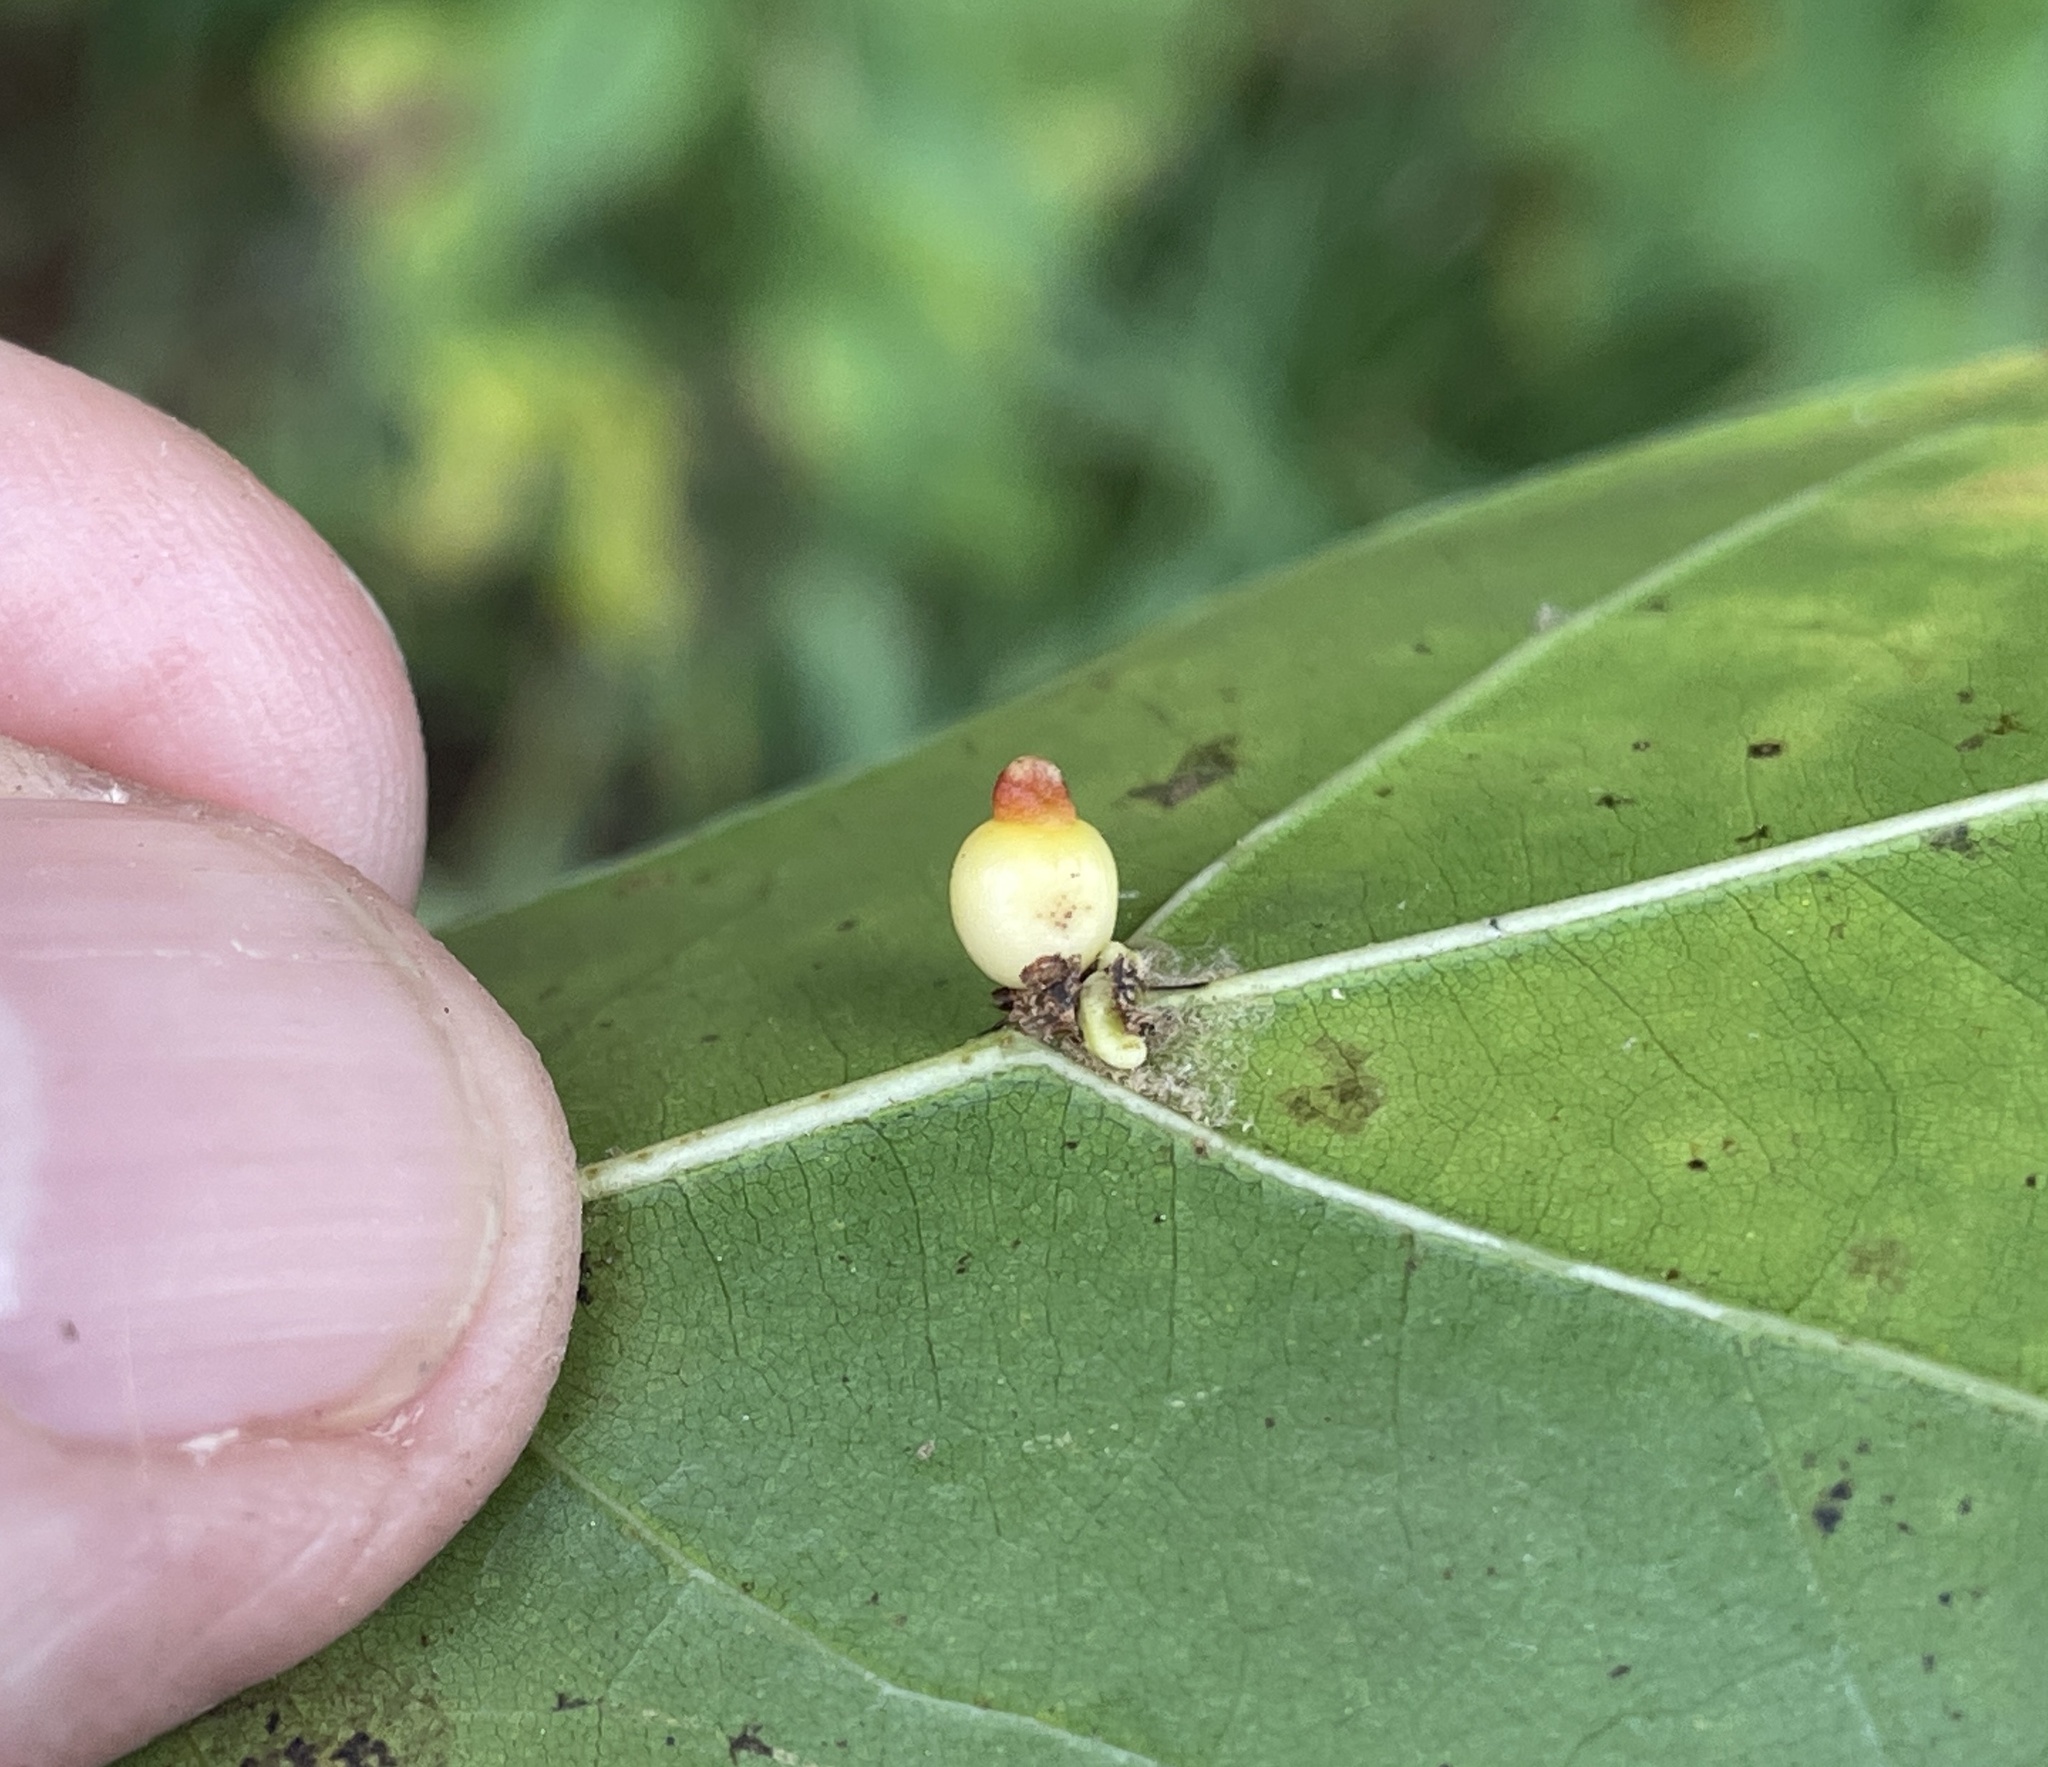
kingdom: Animalia
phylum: Arthropoda
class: Insecta
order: Hymenoptera
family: Cynipidae
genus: Kokkocynips
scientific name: Kokkocynips rileyi
